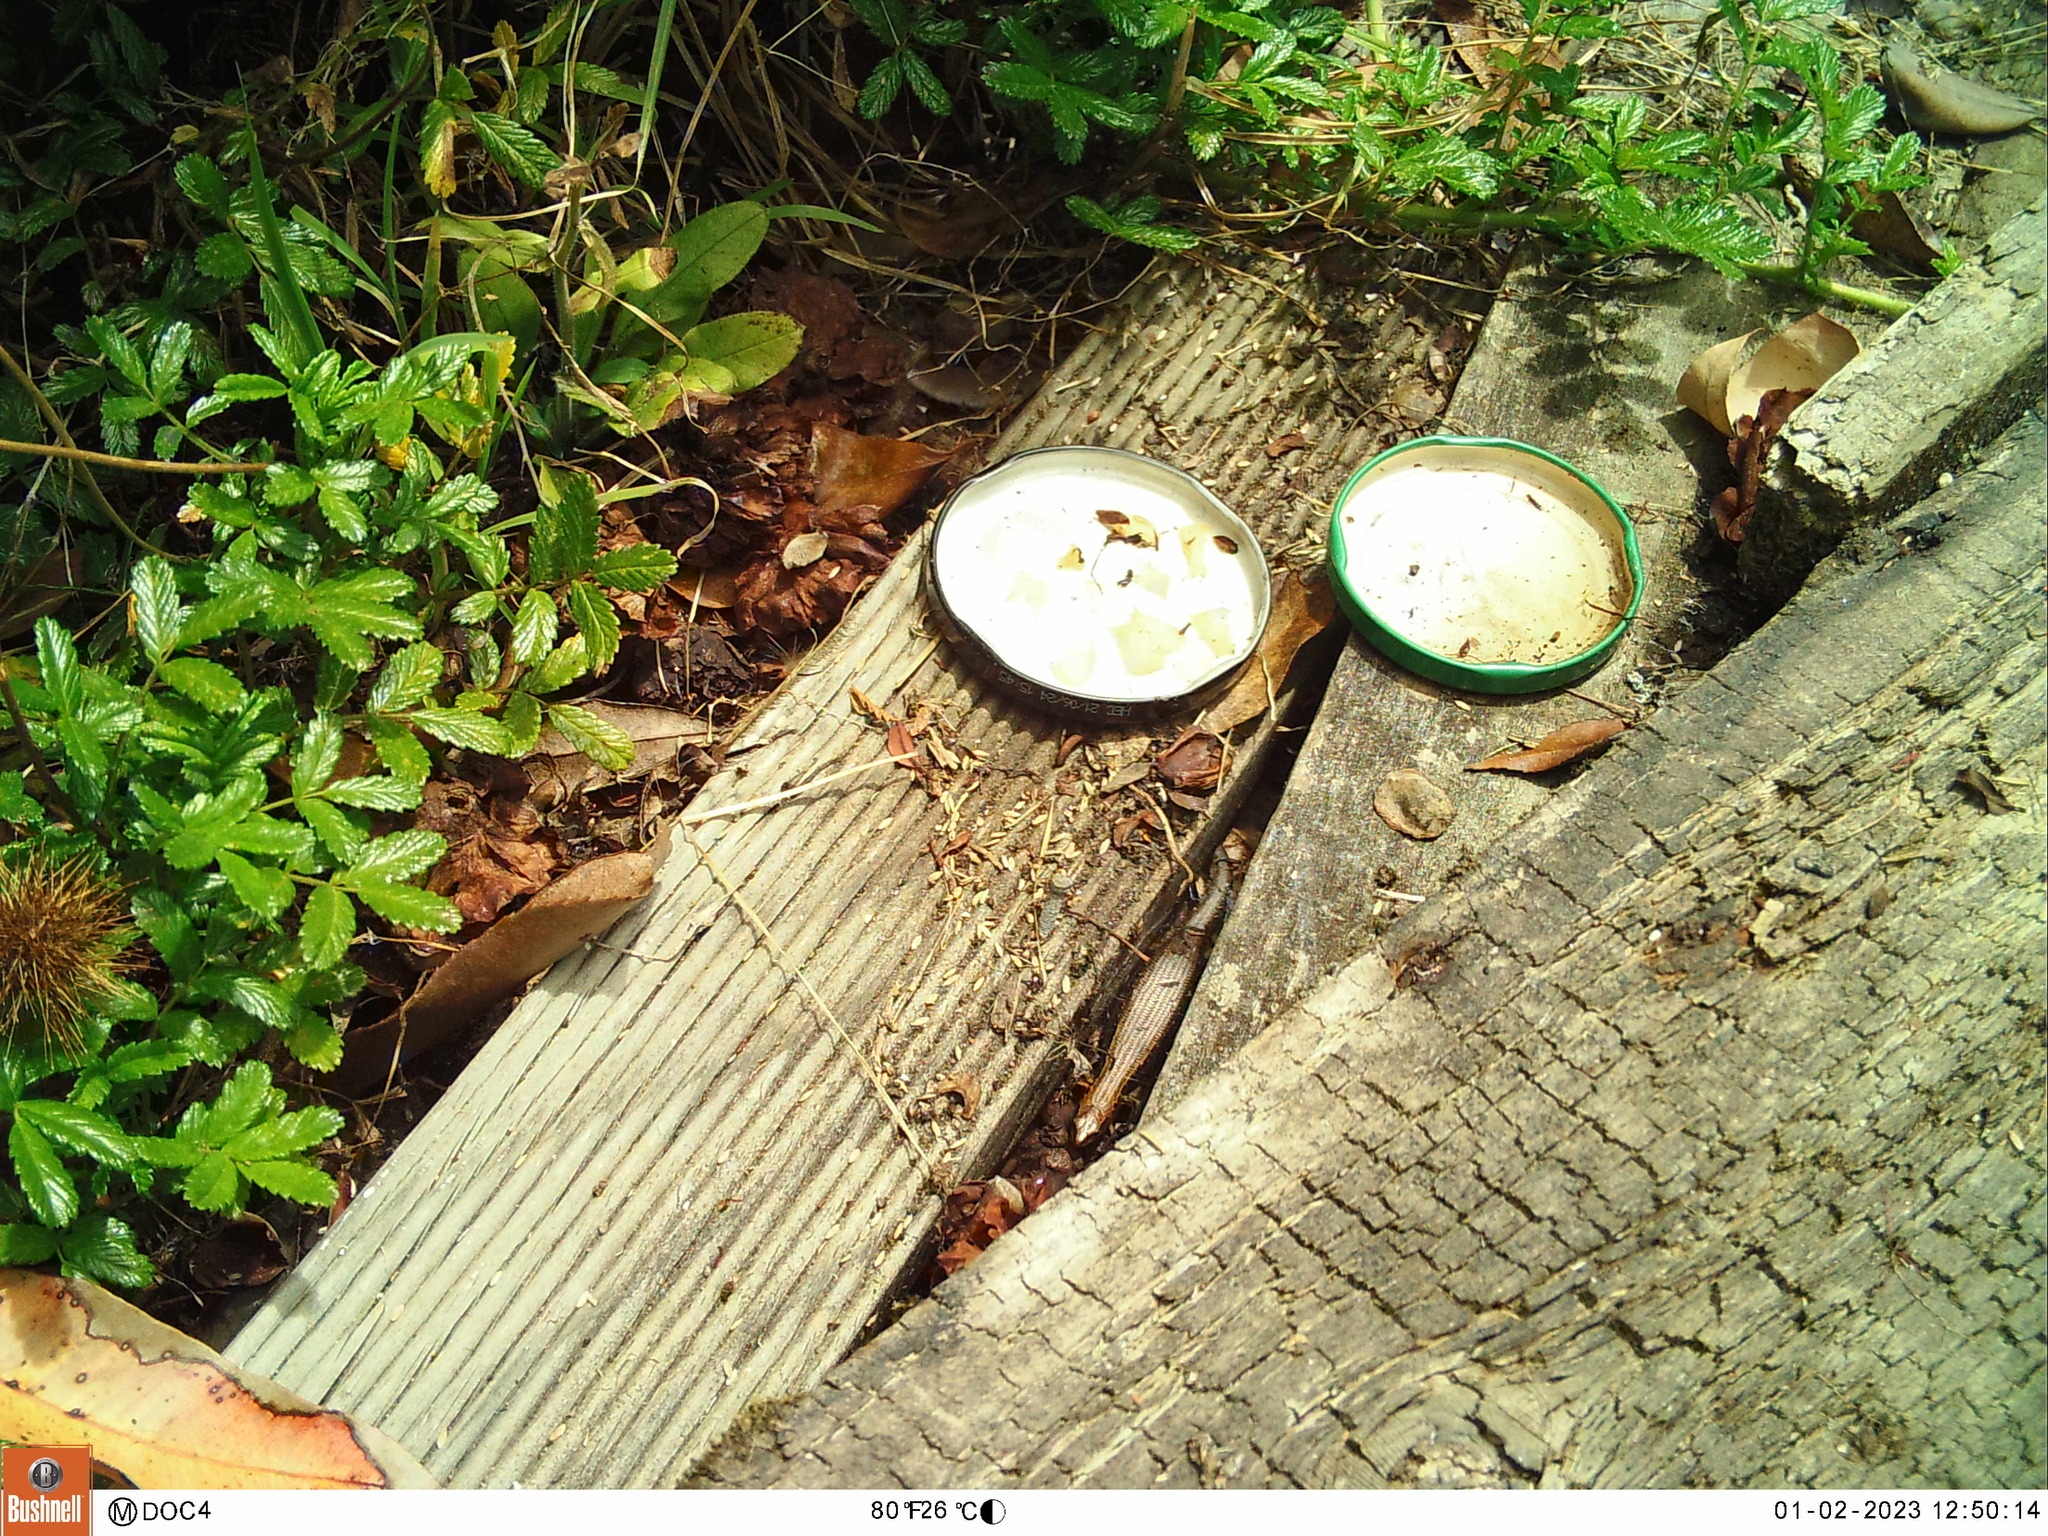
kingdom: Animalia
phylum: Chordata
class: Squamata
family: Scincidae
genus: Oligosoma
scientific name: Oligosoma aeneum
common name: Copper skink
